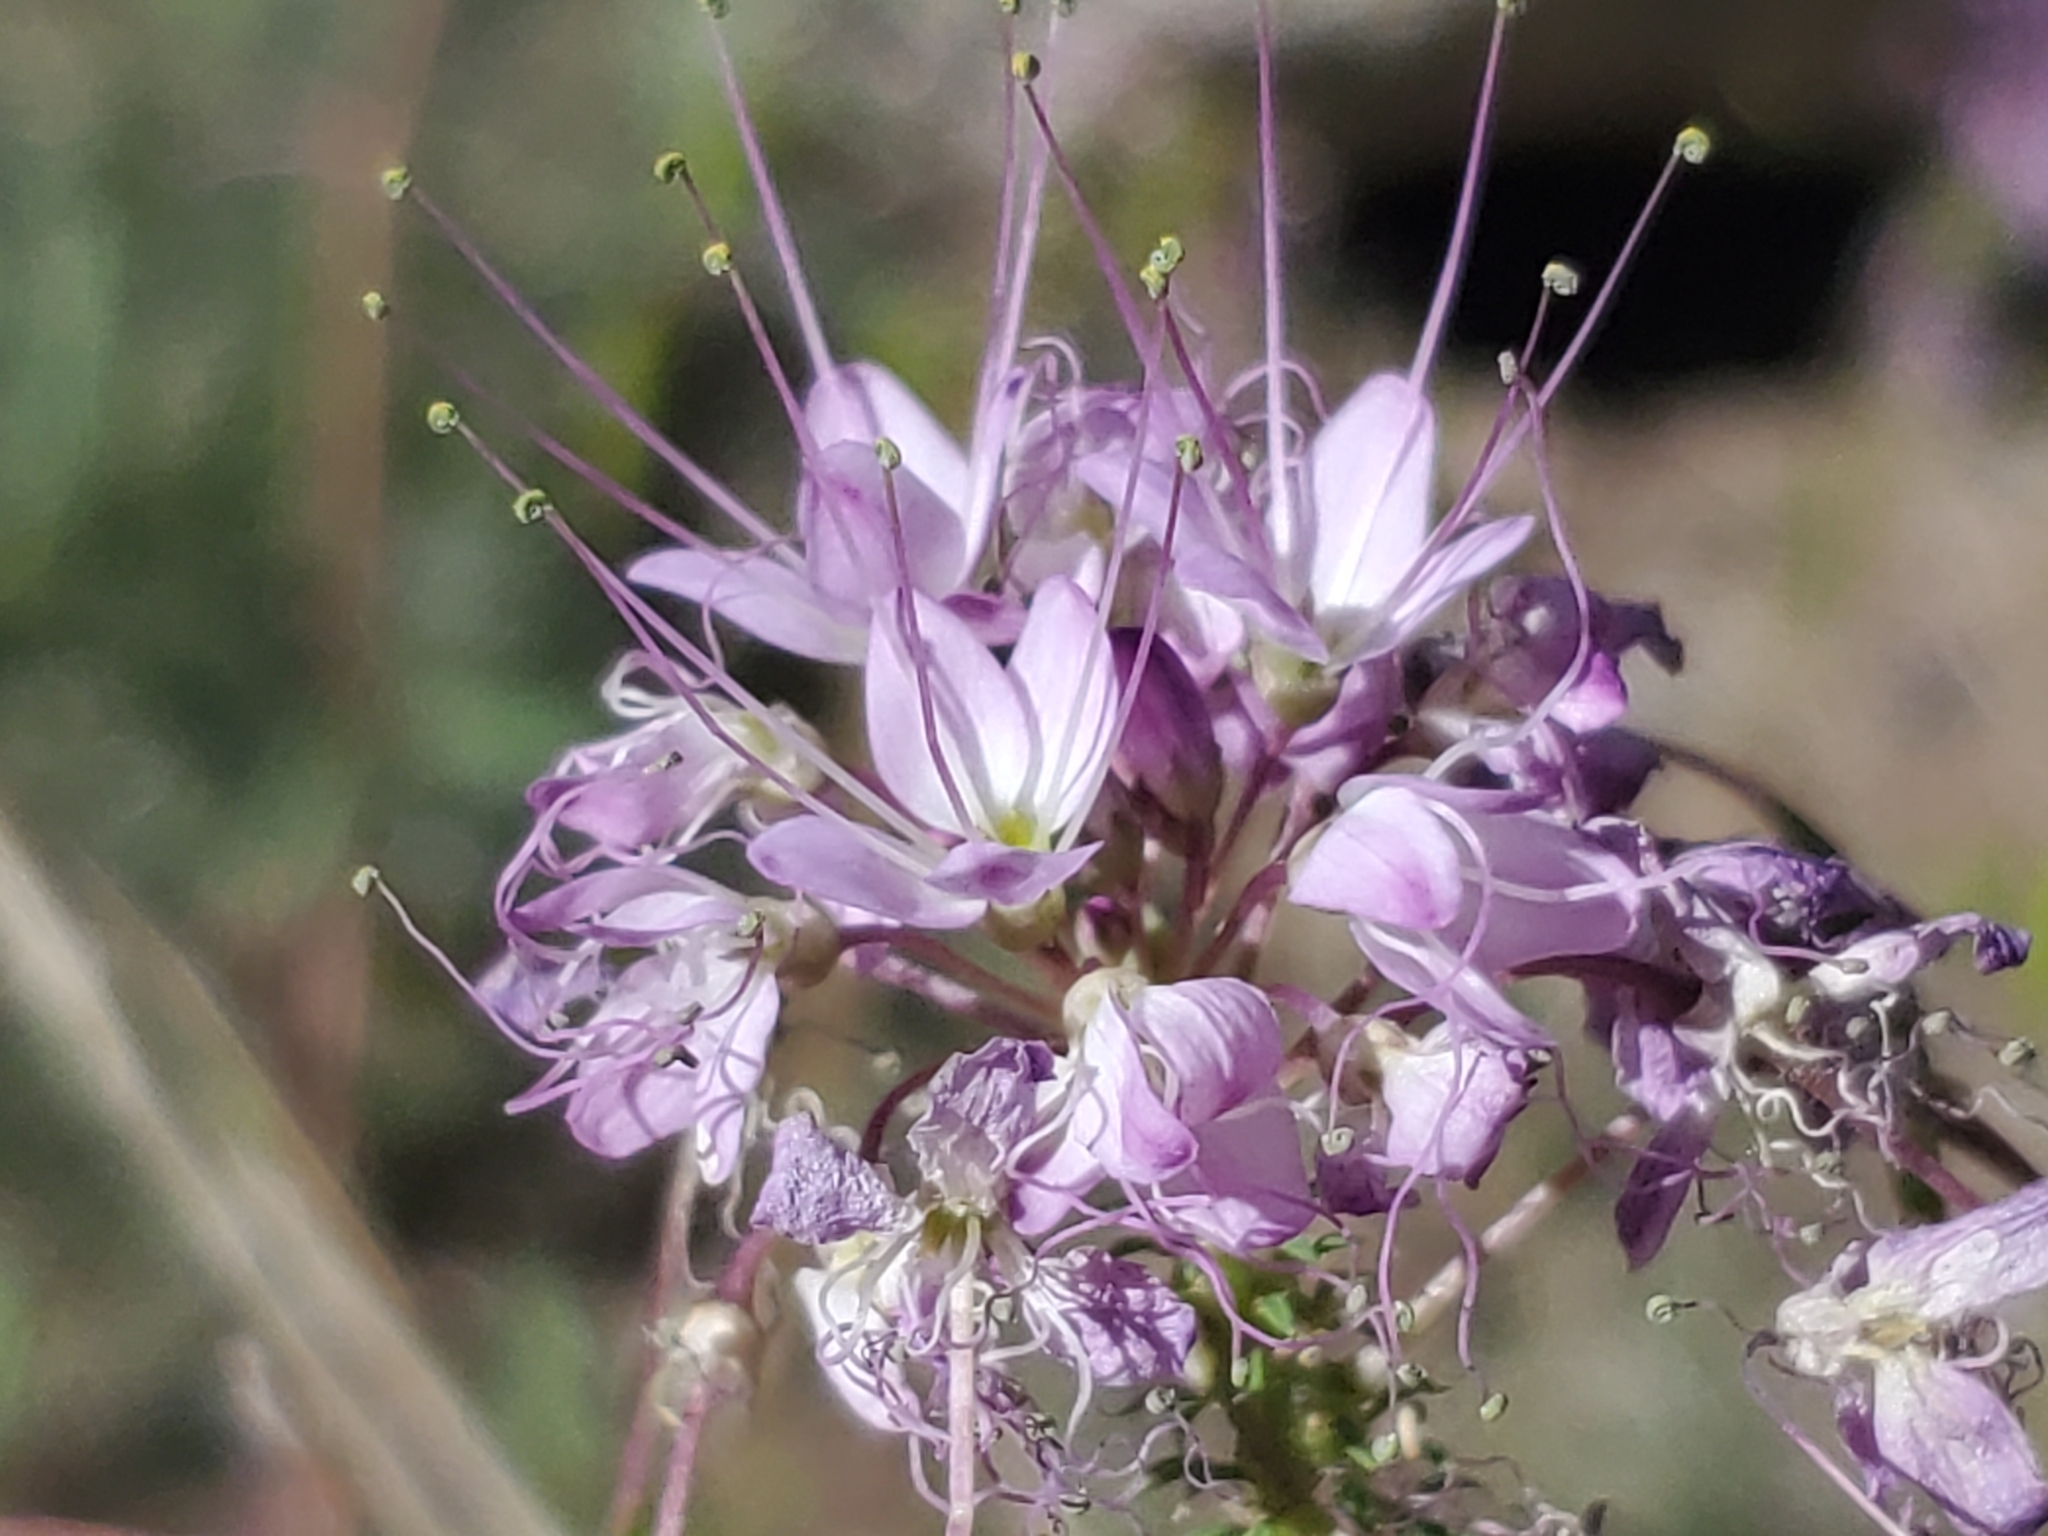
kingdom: Plantae
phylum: Tracheophyta
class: Magnoliopsida
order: Brassicales
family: Cleomaceae
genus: Cleomella
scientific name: Cleomella serrulata
